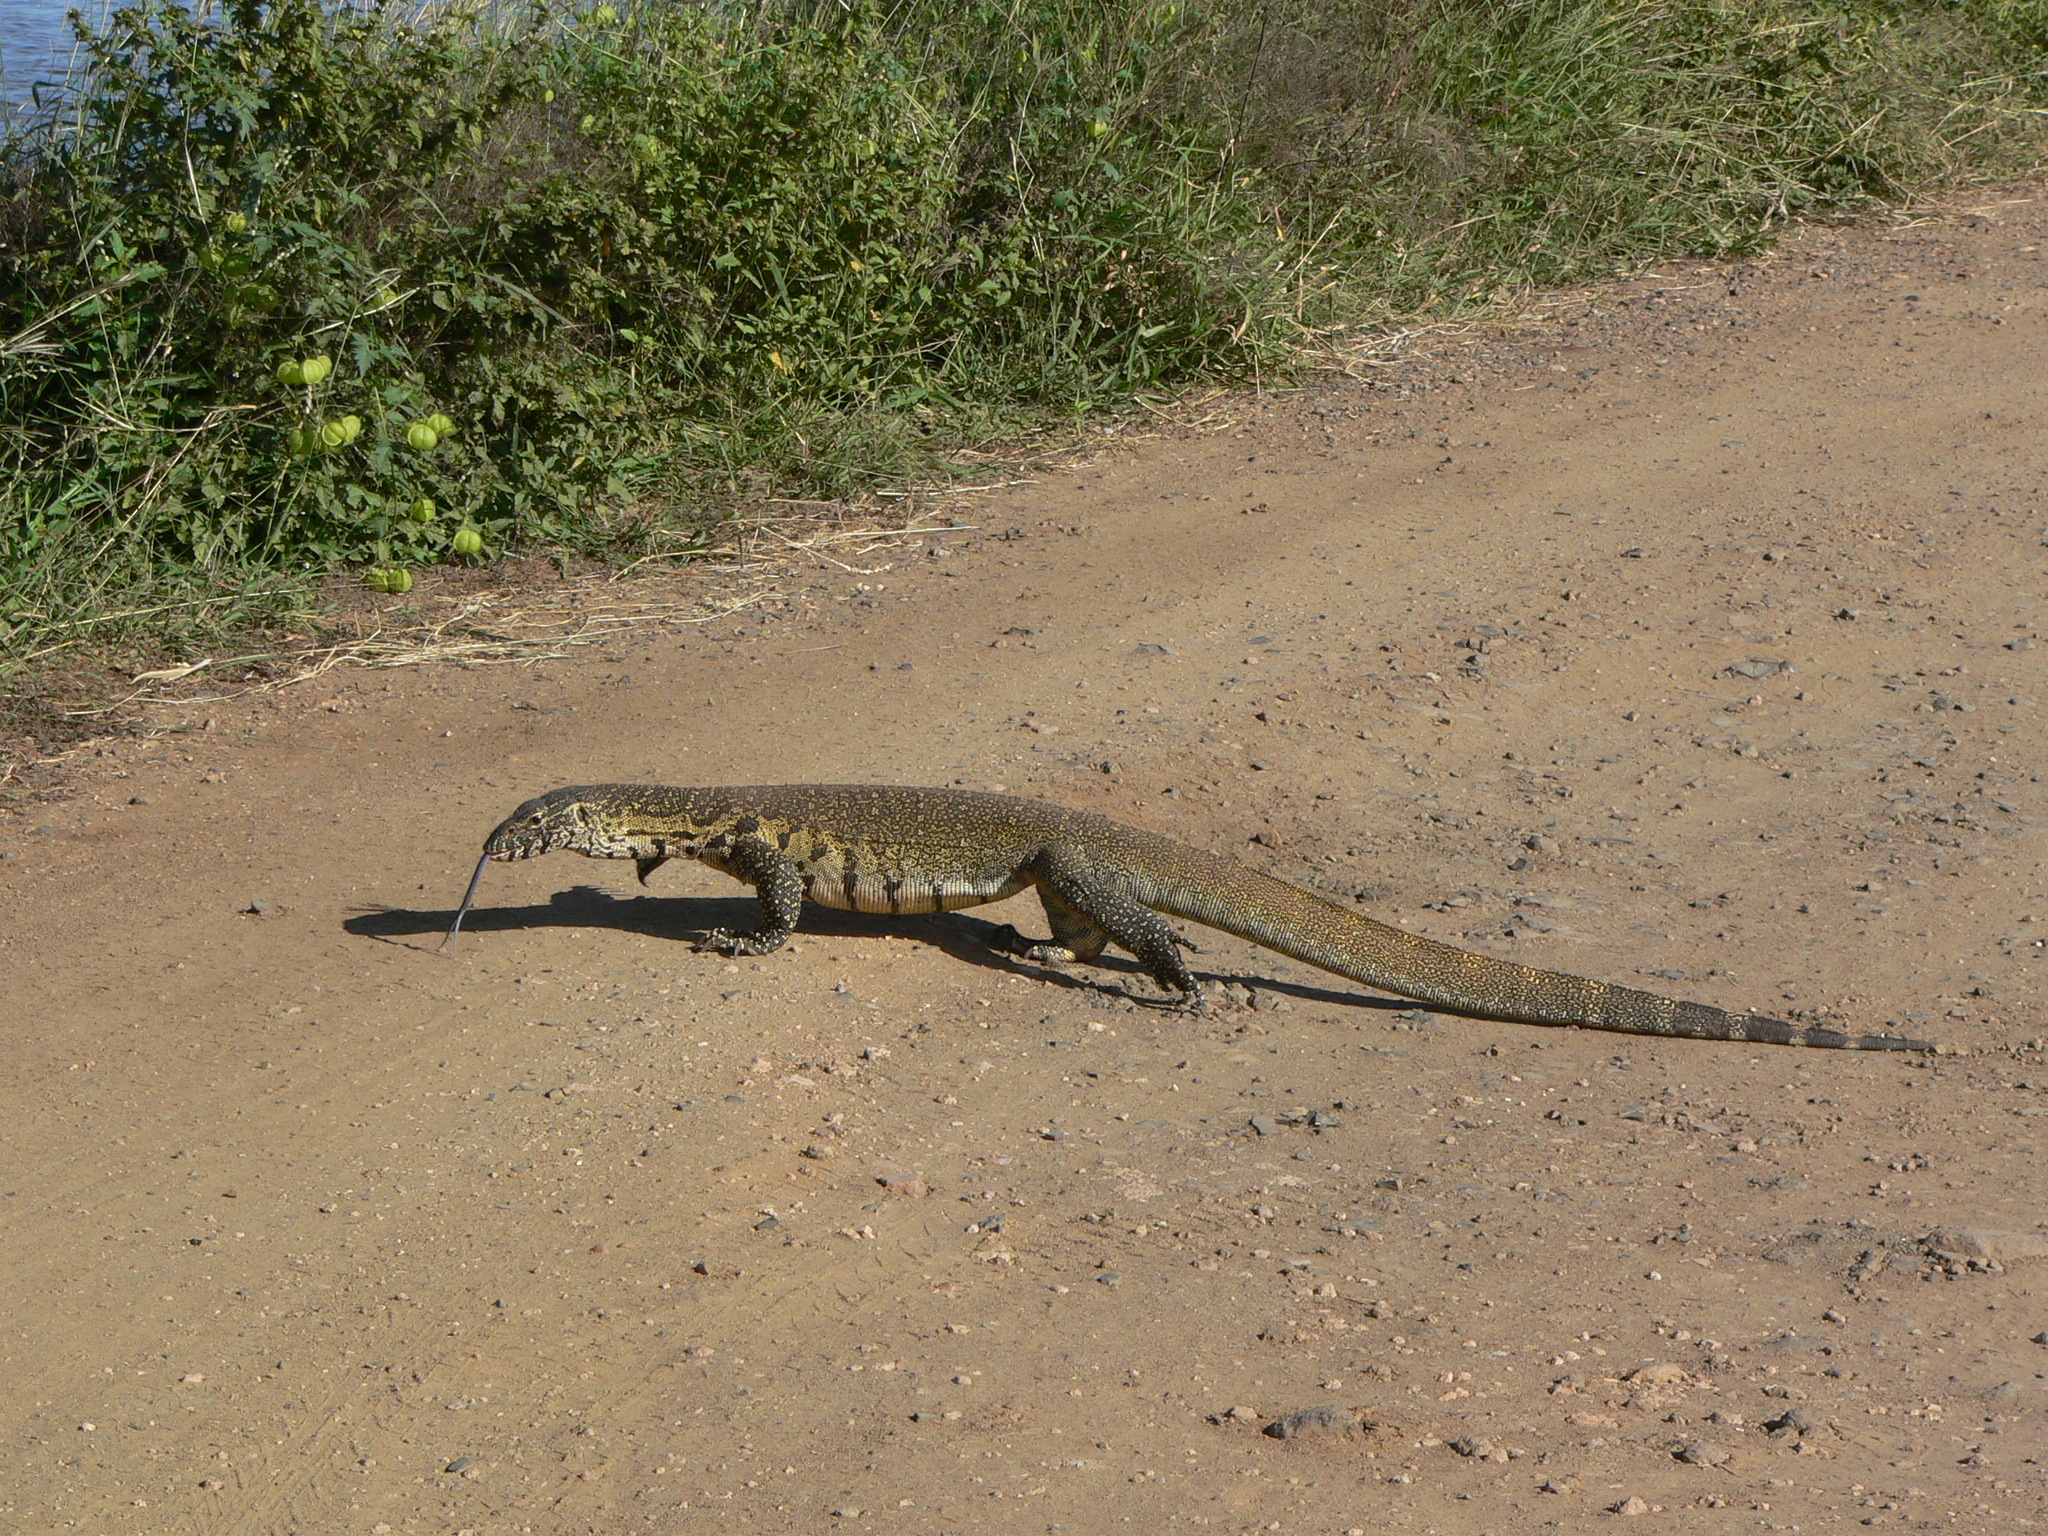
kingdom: Animalia
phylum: Chordata
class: Squamata
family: Varanidae
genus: Varanus
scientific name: Varanus niloticus
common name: Nile monitor
